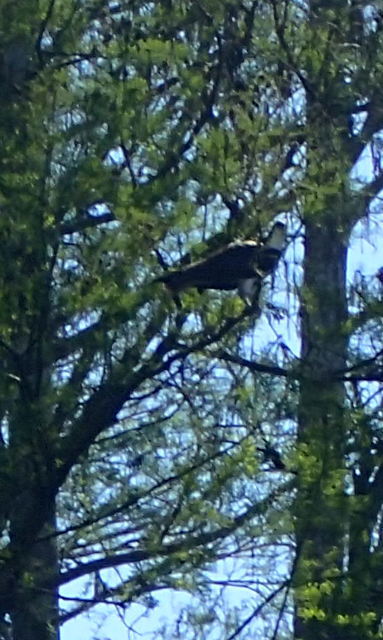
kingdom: Animalia
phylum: Chordata
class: Aves
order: Accipitriformes
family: Pandionidae
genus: Pandion
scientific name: Pandion haliaetus
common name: Osprey
